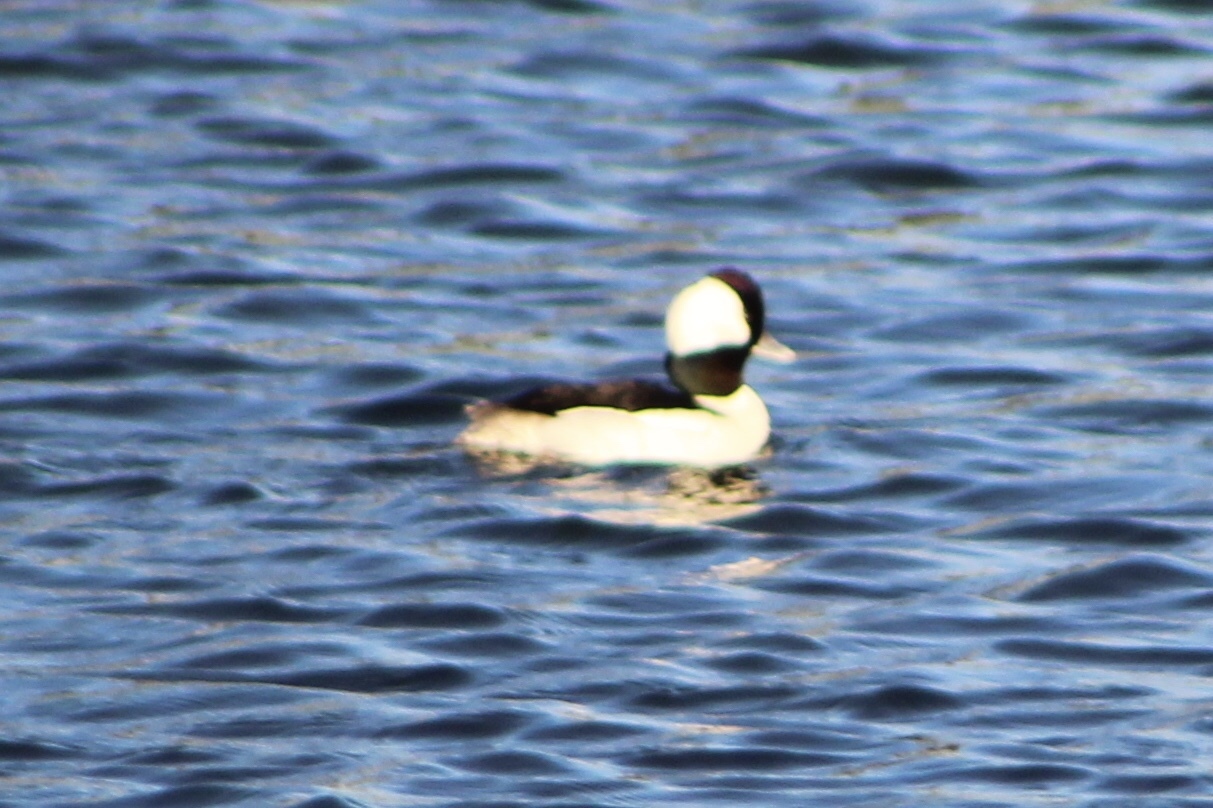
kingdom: Animalia
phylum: Chordata
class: Aves
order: Anseriformes
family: Anatidae
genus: Bucephala
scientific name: Bucephala albeola
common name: Bufflehead
